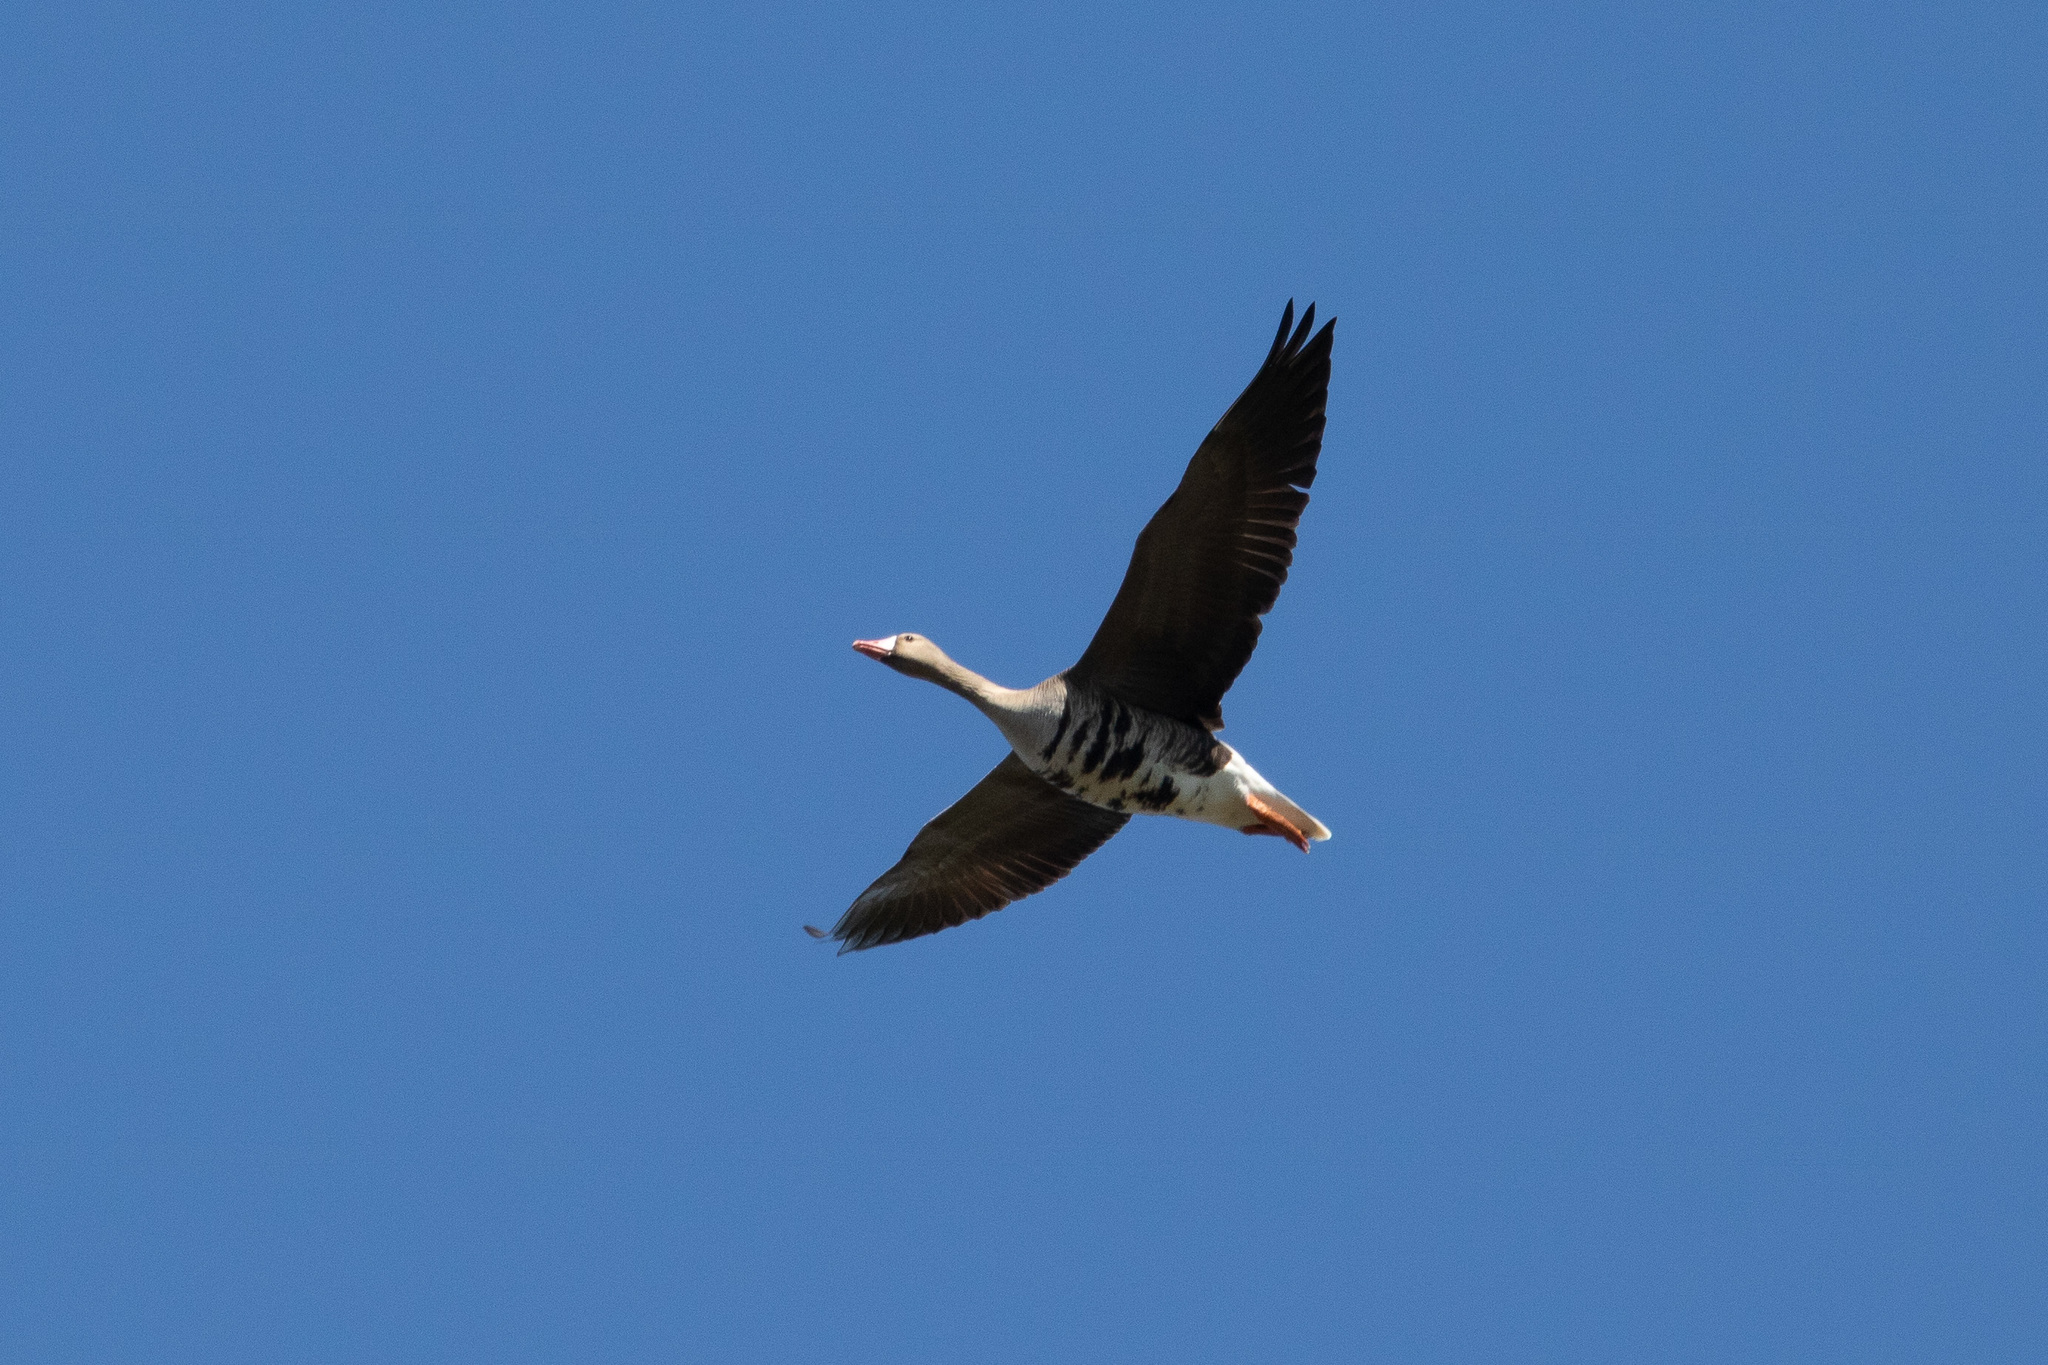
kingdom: Animalia
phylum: Chordata
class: Aves
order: Anseriformes
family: Anatidae
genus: Anser
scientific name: Anser albifrons
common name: Greater white-fronted goose
